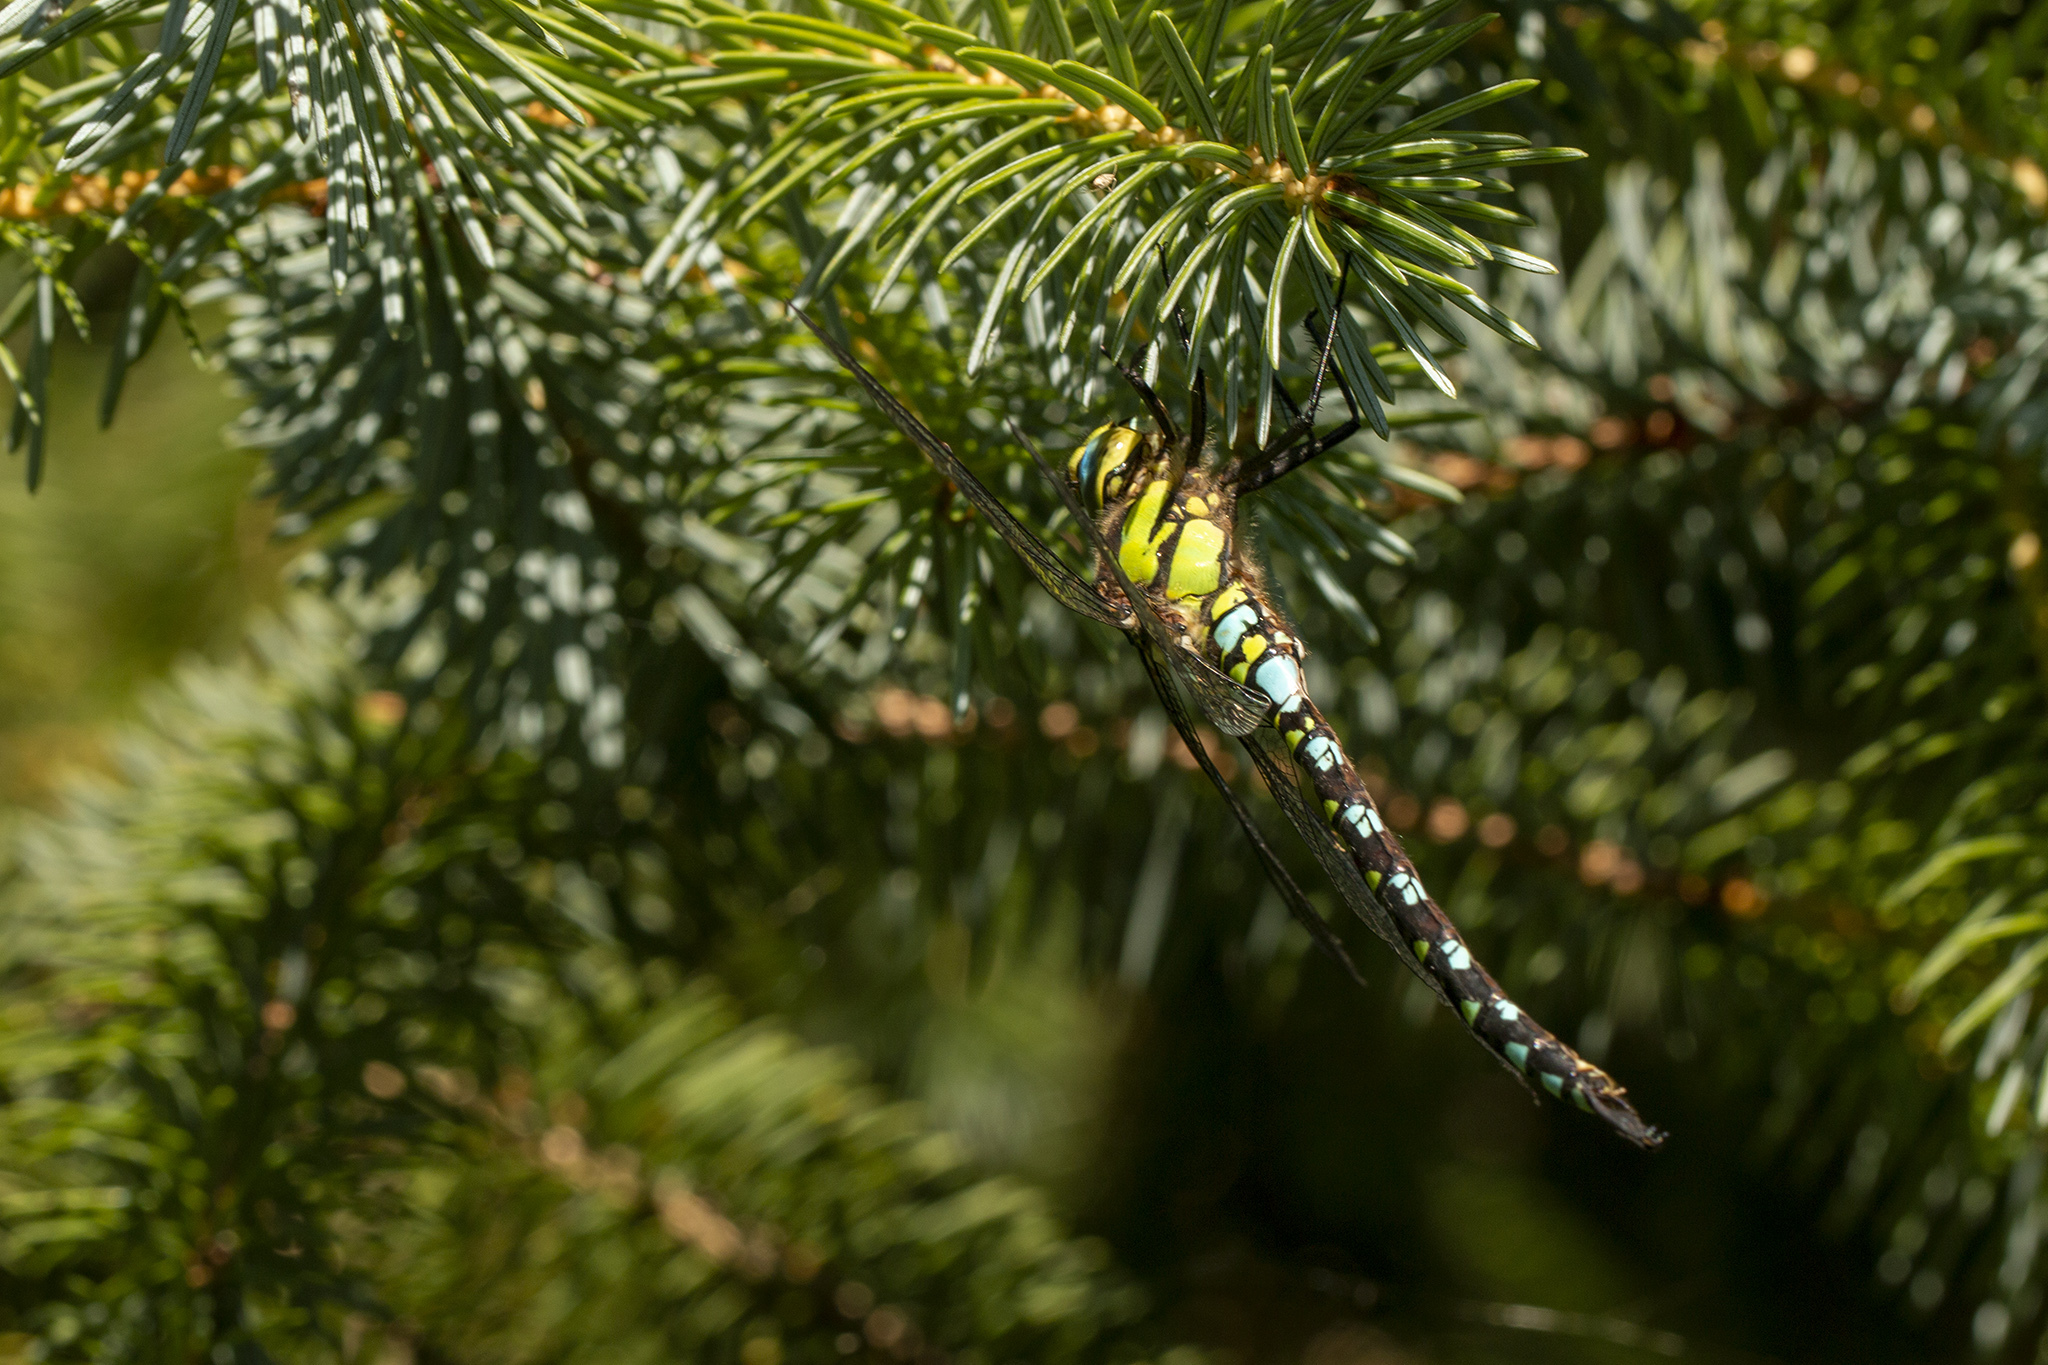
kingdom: Animalia
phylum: Arthropoda
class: Insecta
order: Odonata
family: Aeshnidae
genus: Aeshna
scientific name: Aeshna cyanea
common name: Southern hawker
